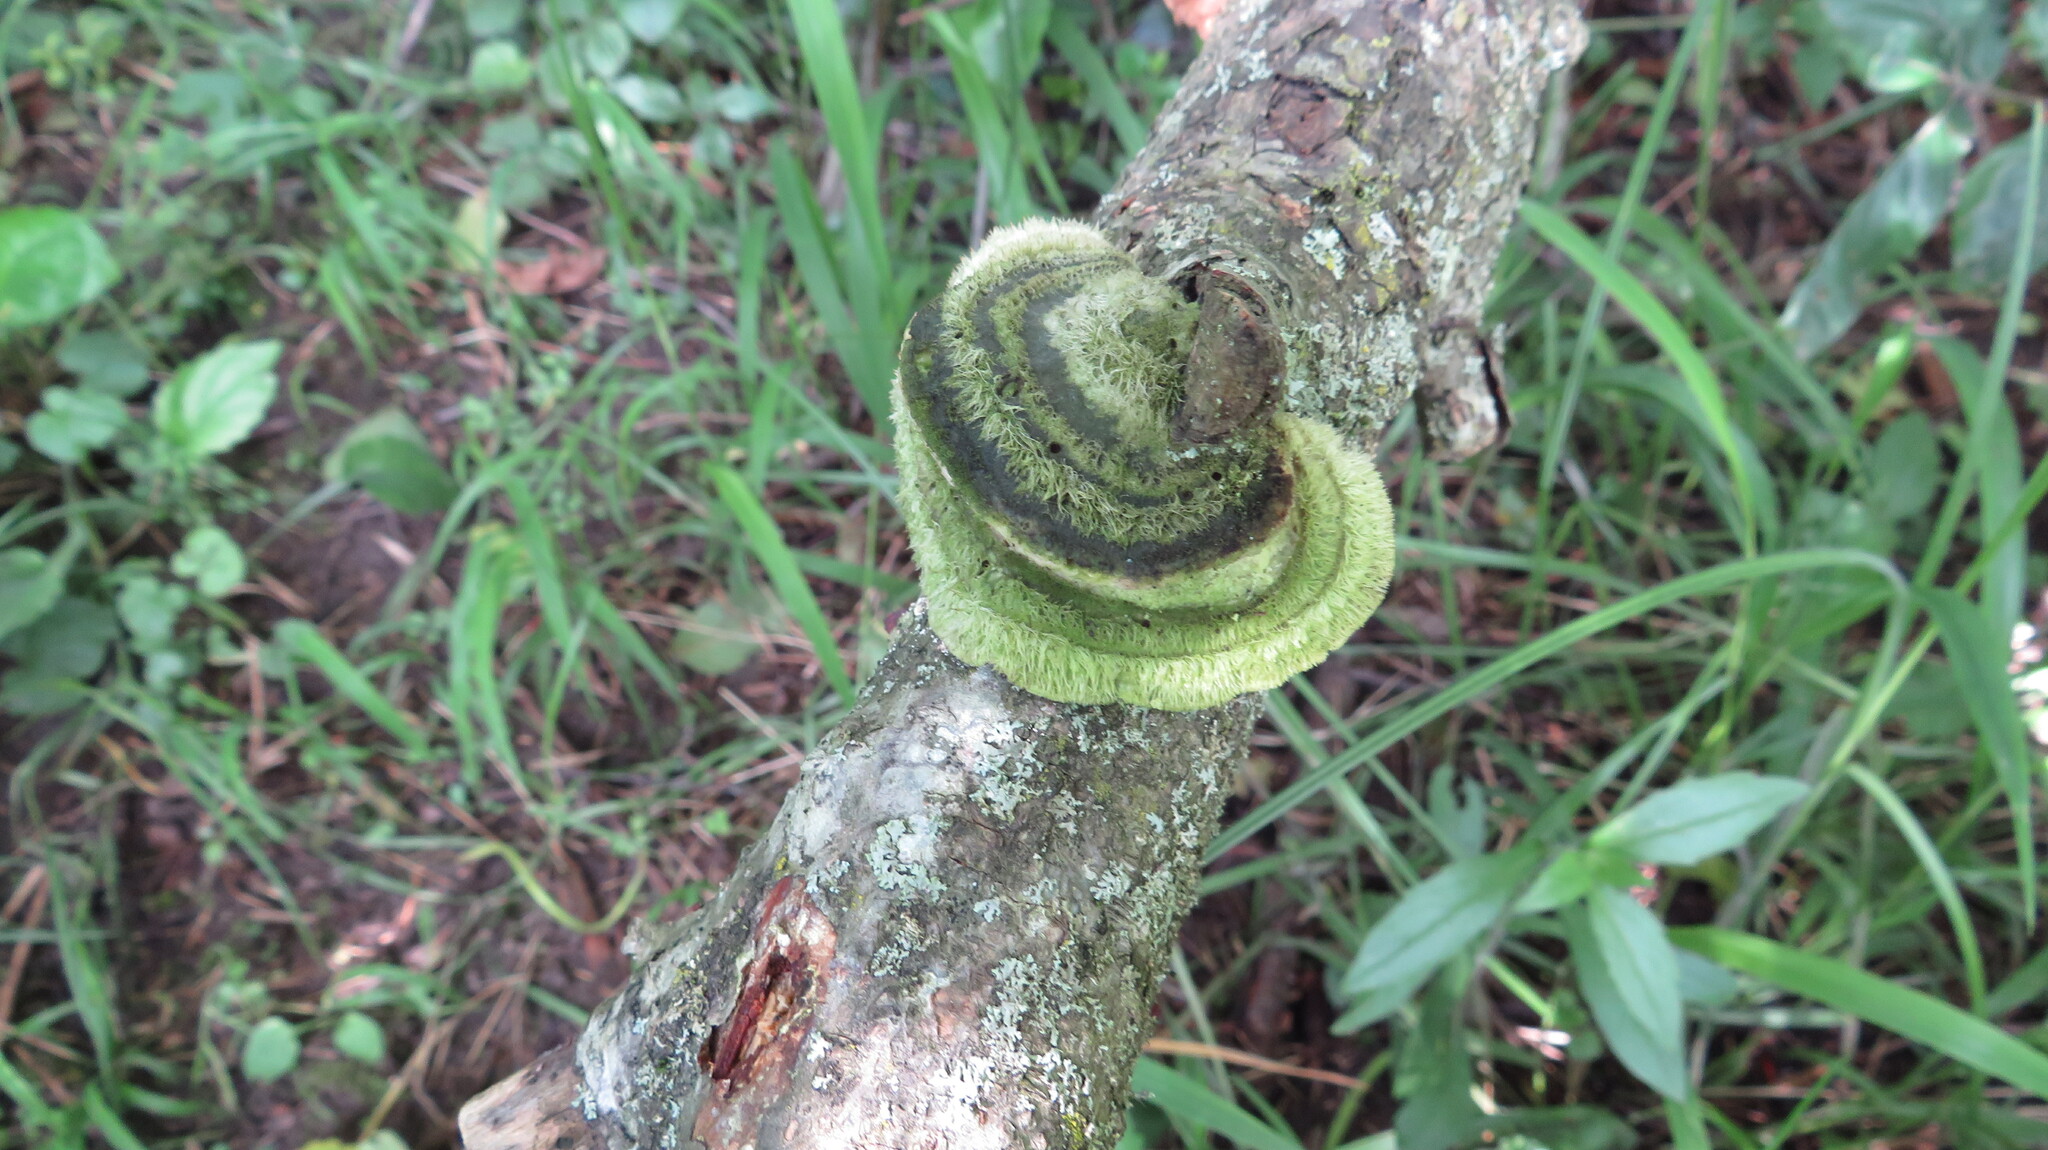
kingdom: Fungi
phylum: Basidiomycota
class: Agaricomycetes
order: Polyporales
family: Polyporaceae
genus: Trametes
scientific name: Trametes hirsuta
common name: Hairy bracket
